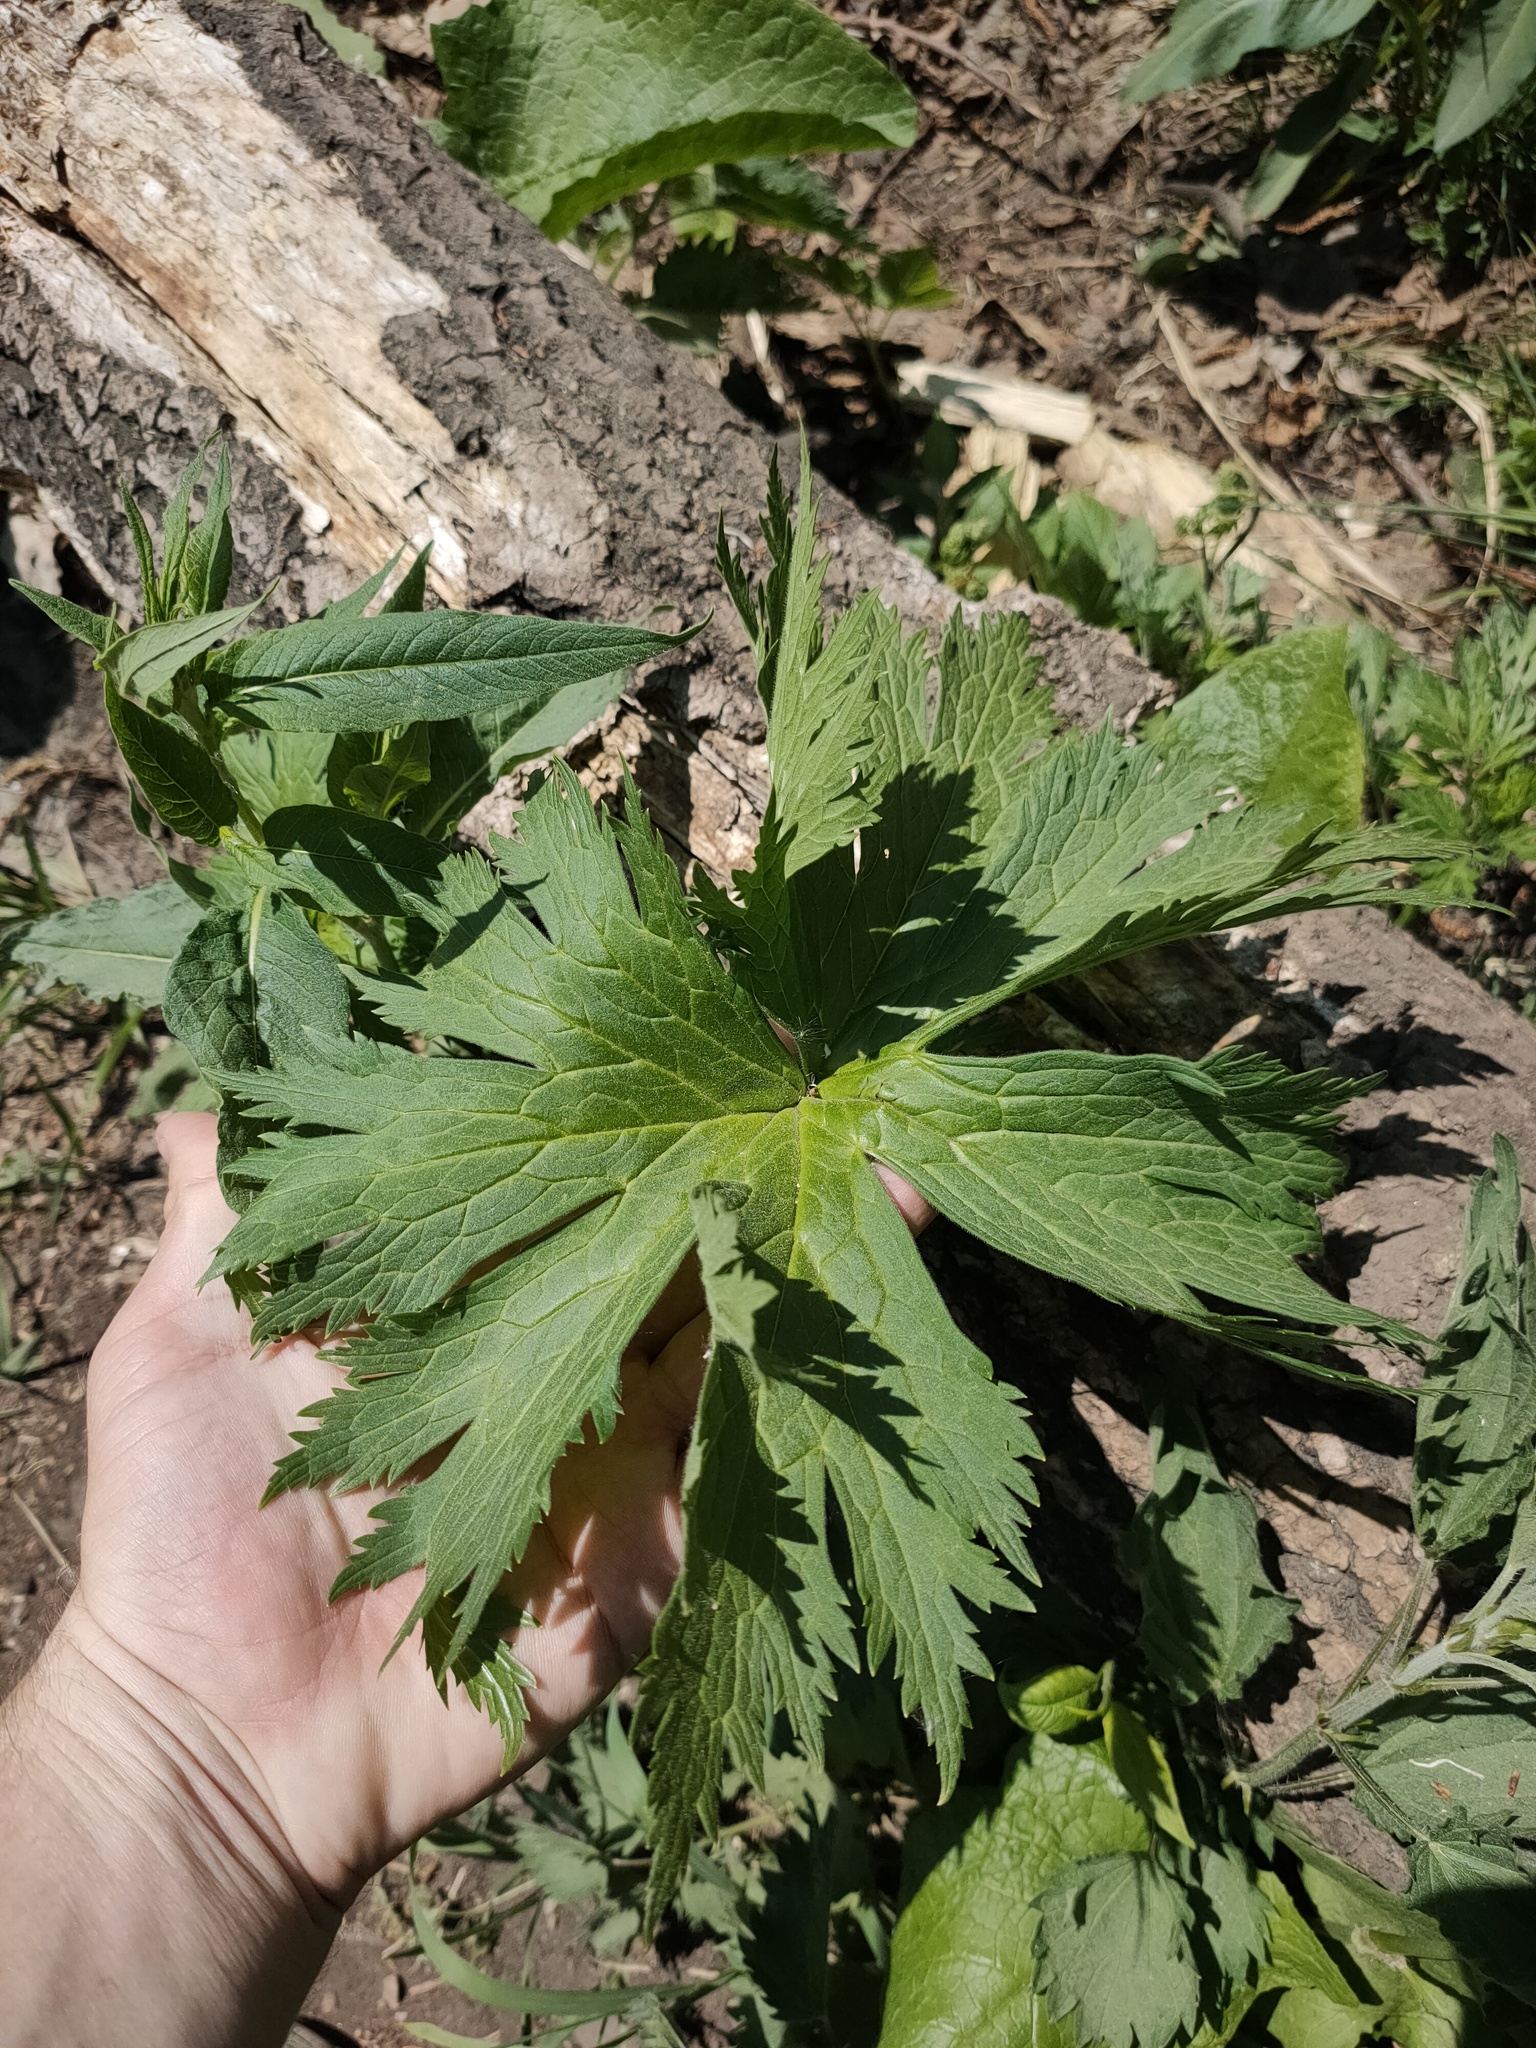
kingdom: Plantae
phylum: Tracheophyta
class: Magnoliopsida
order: Ranunculales
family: Ranunculaceae
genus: Aconitum
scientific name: Aconitum septentrionale
